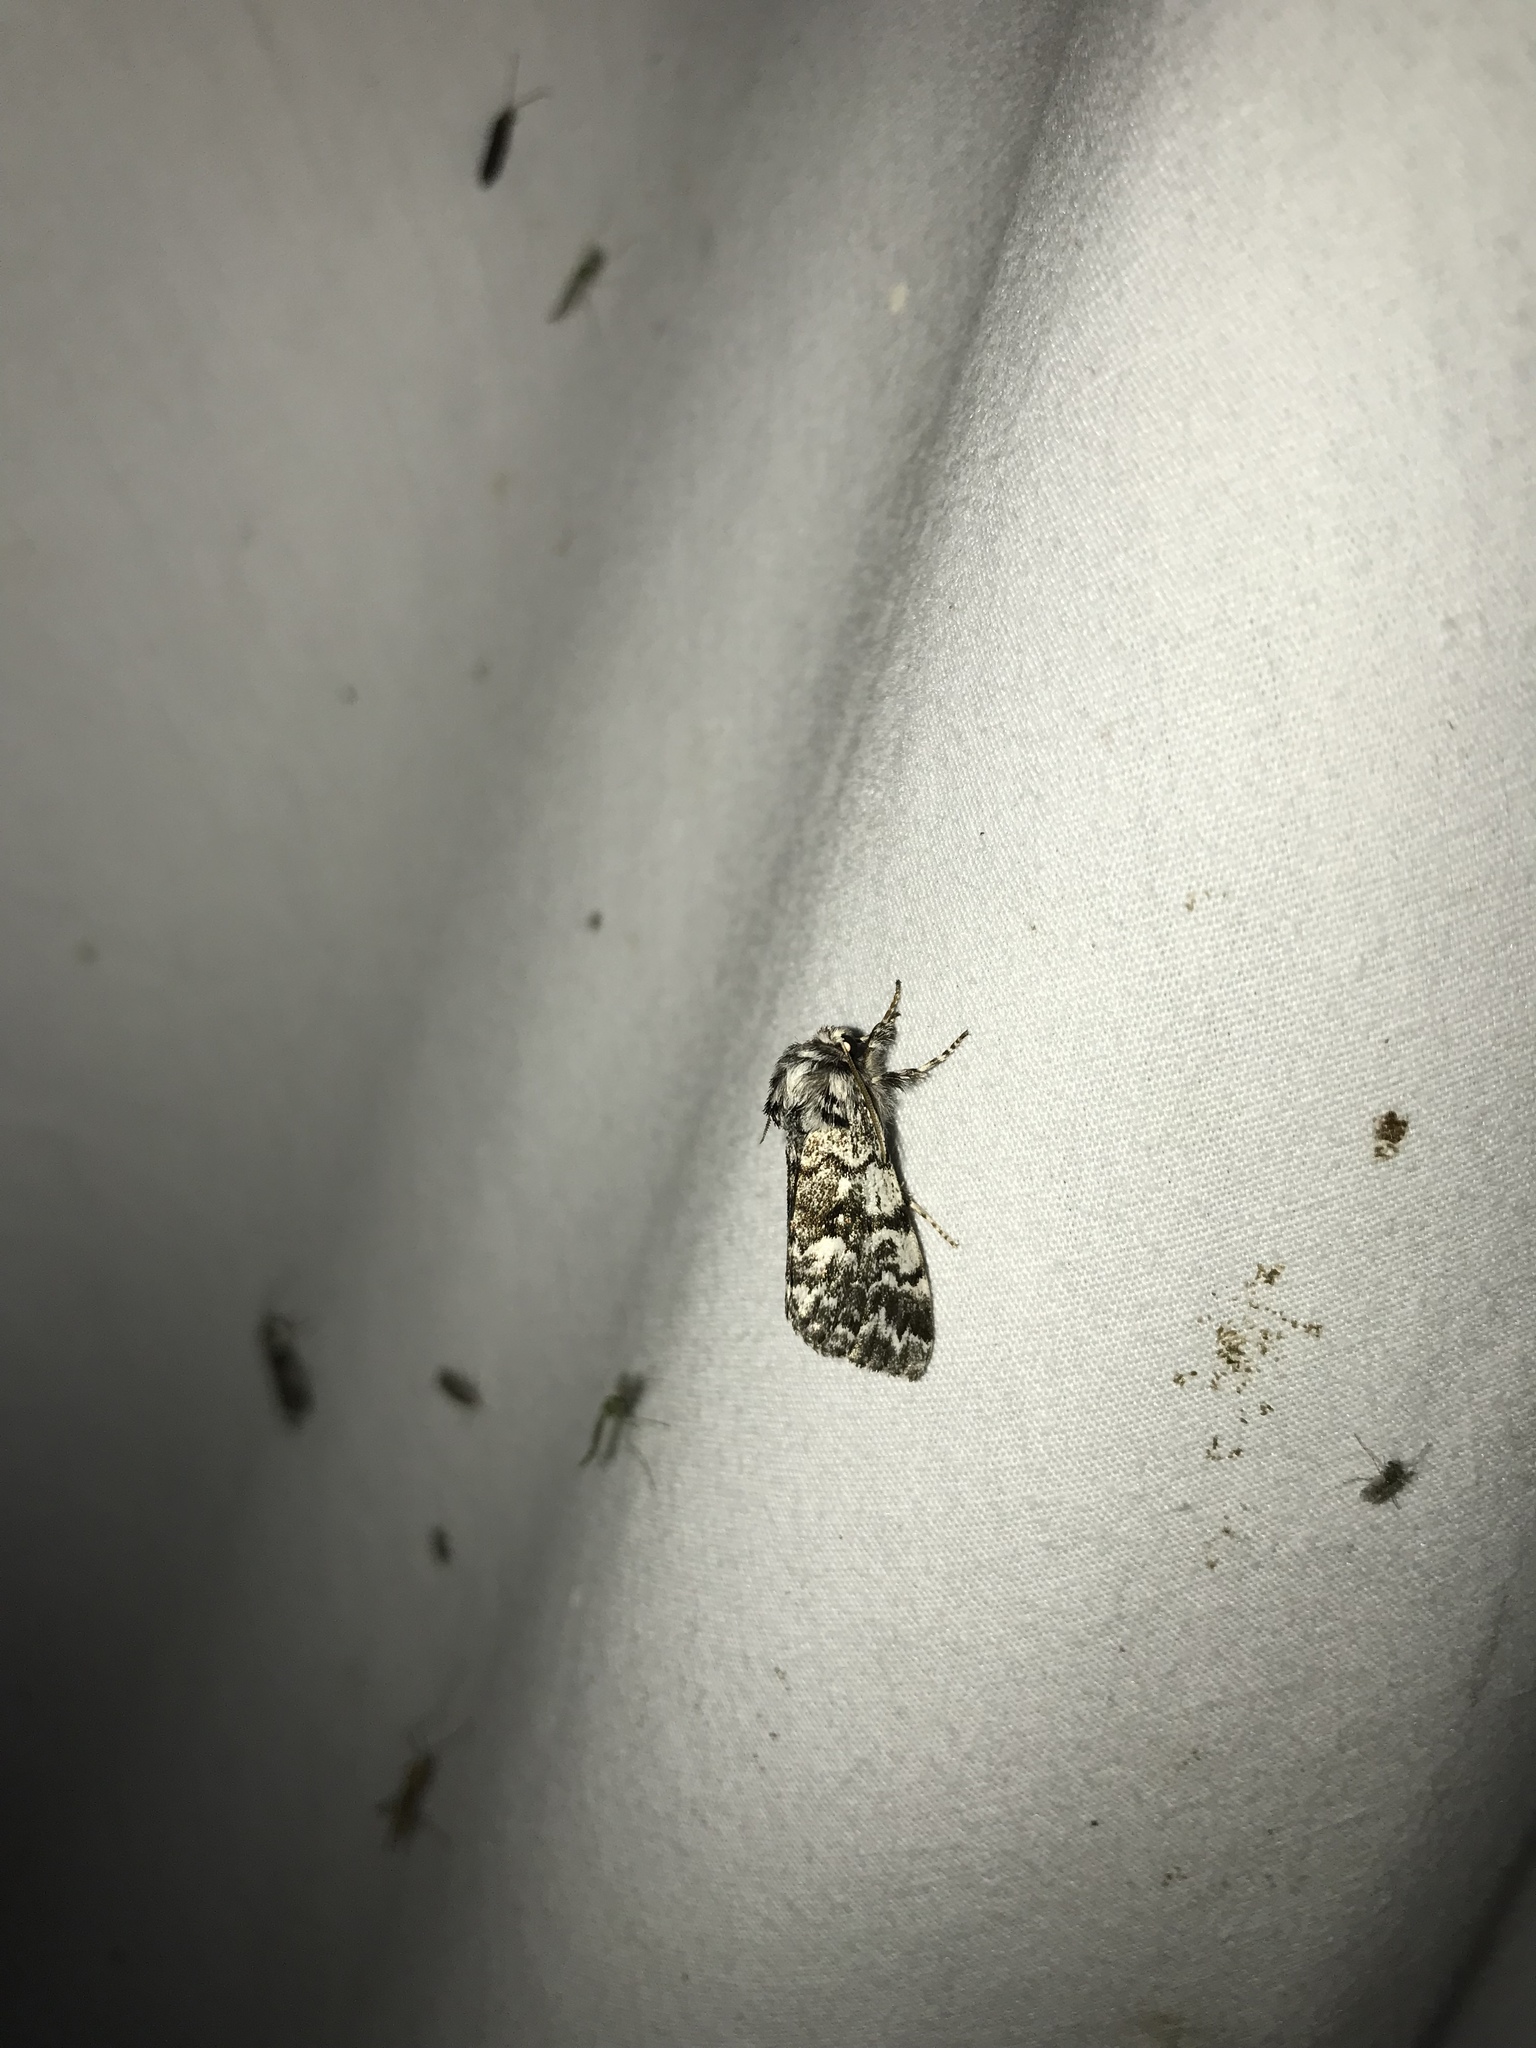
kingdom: Animalia
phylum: Arthropoda
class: Insecta
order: Lepidoptera
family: Noctuidae
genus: Panthea
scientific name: Panthea acronyctoides
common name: Black zigzag moth
